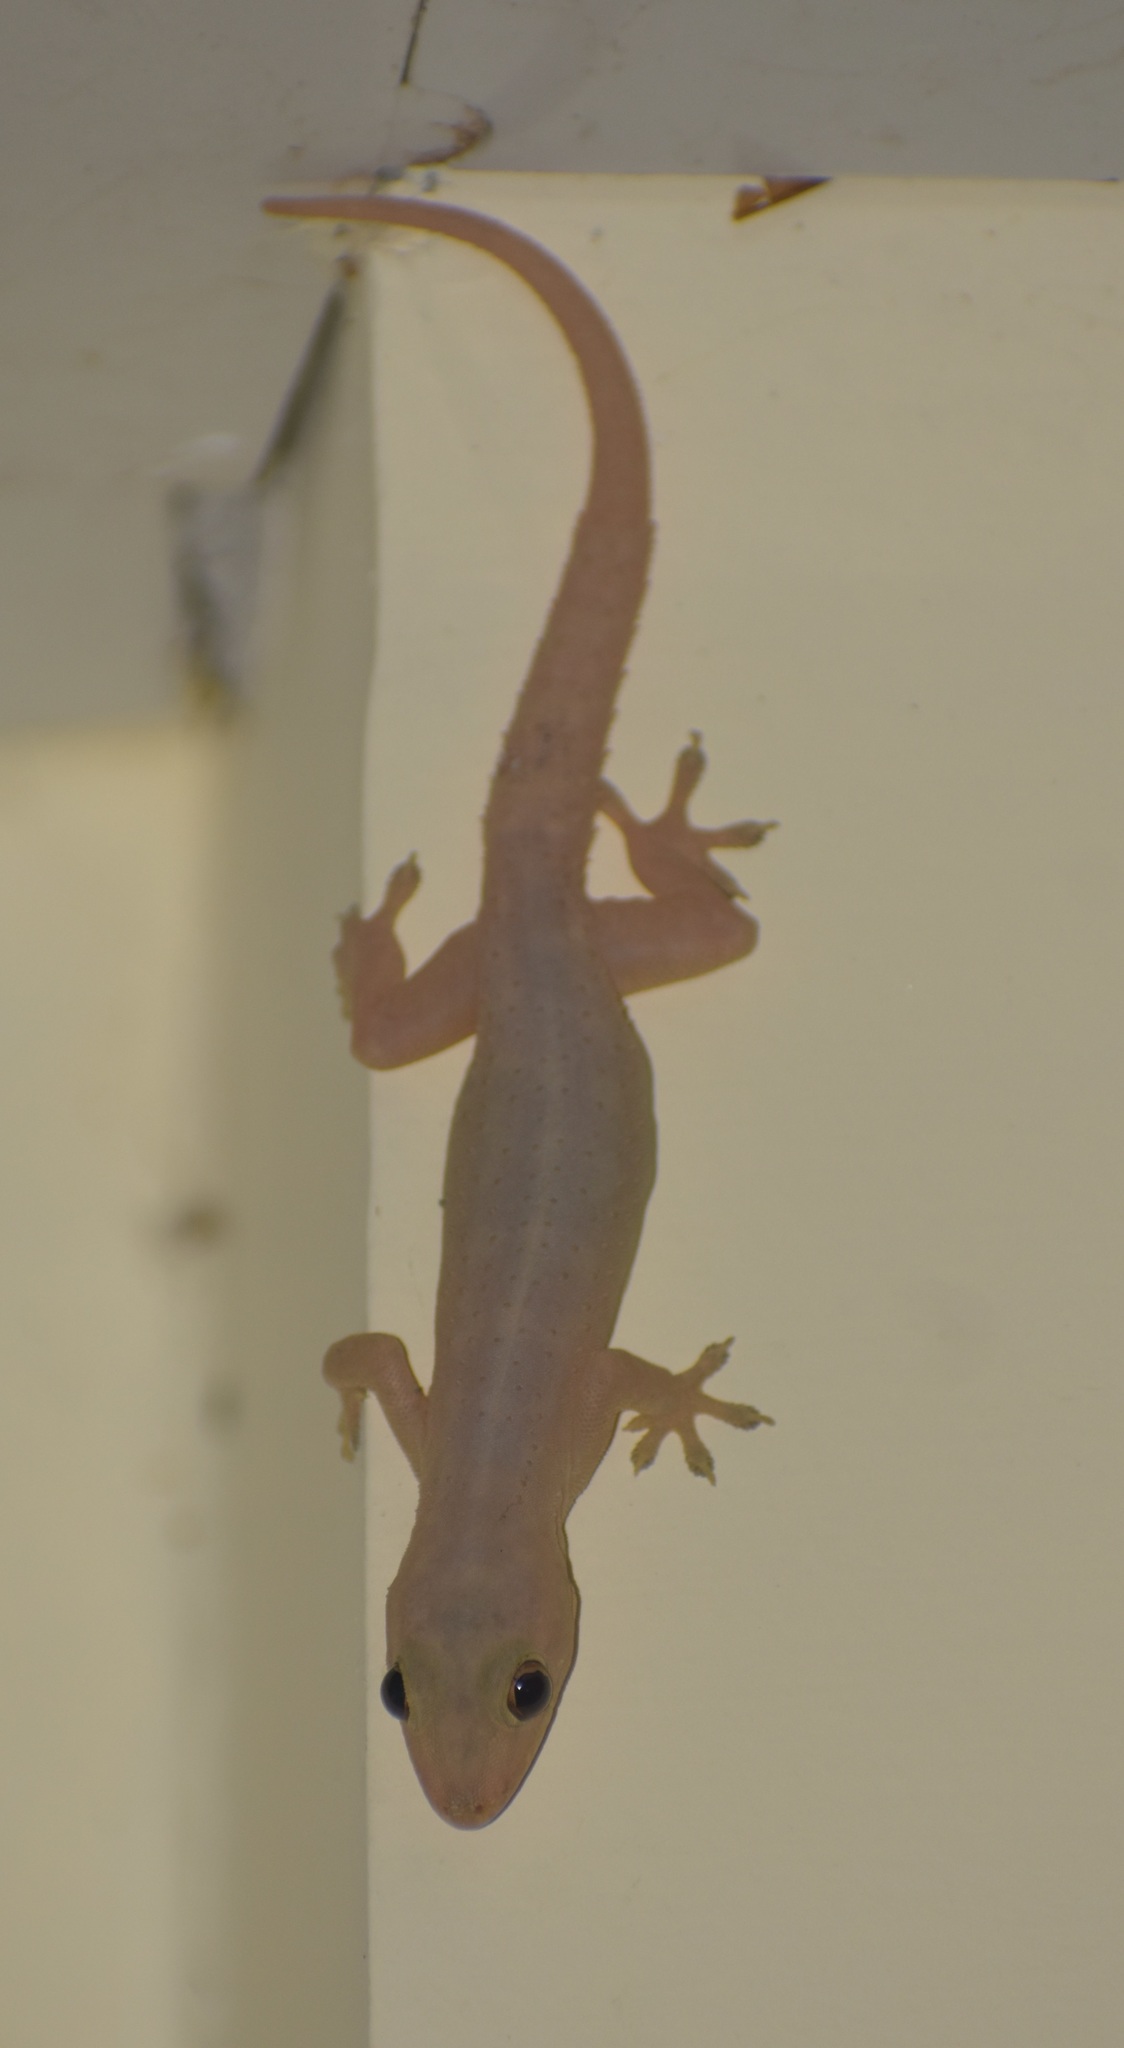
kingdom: Animalia
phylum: Chordata
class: Squamata
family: Gekkonidae
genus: Hemidactylus
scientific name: Hemidactylus frenatus
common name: Common house gecko
